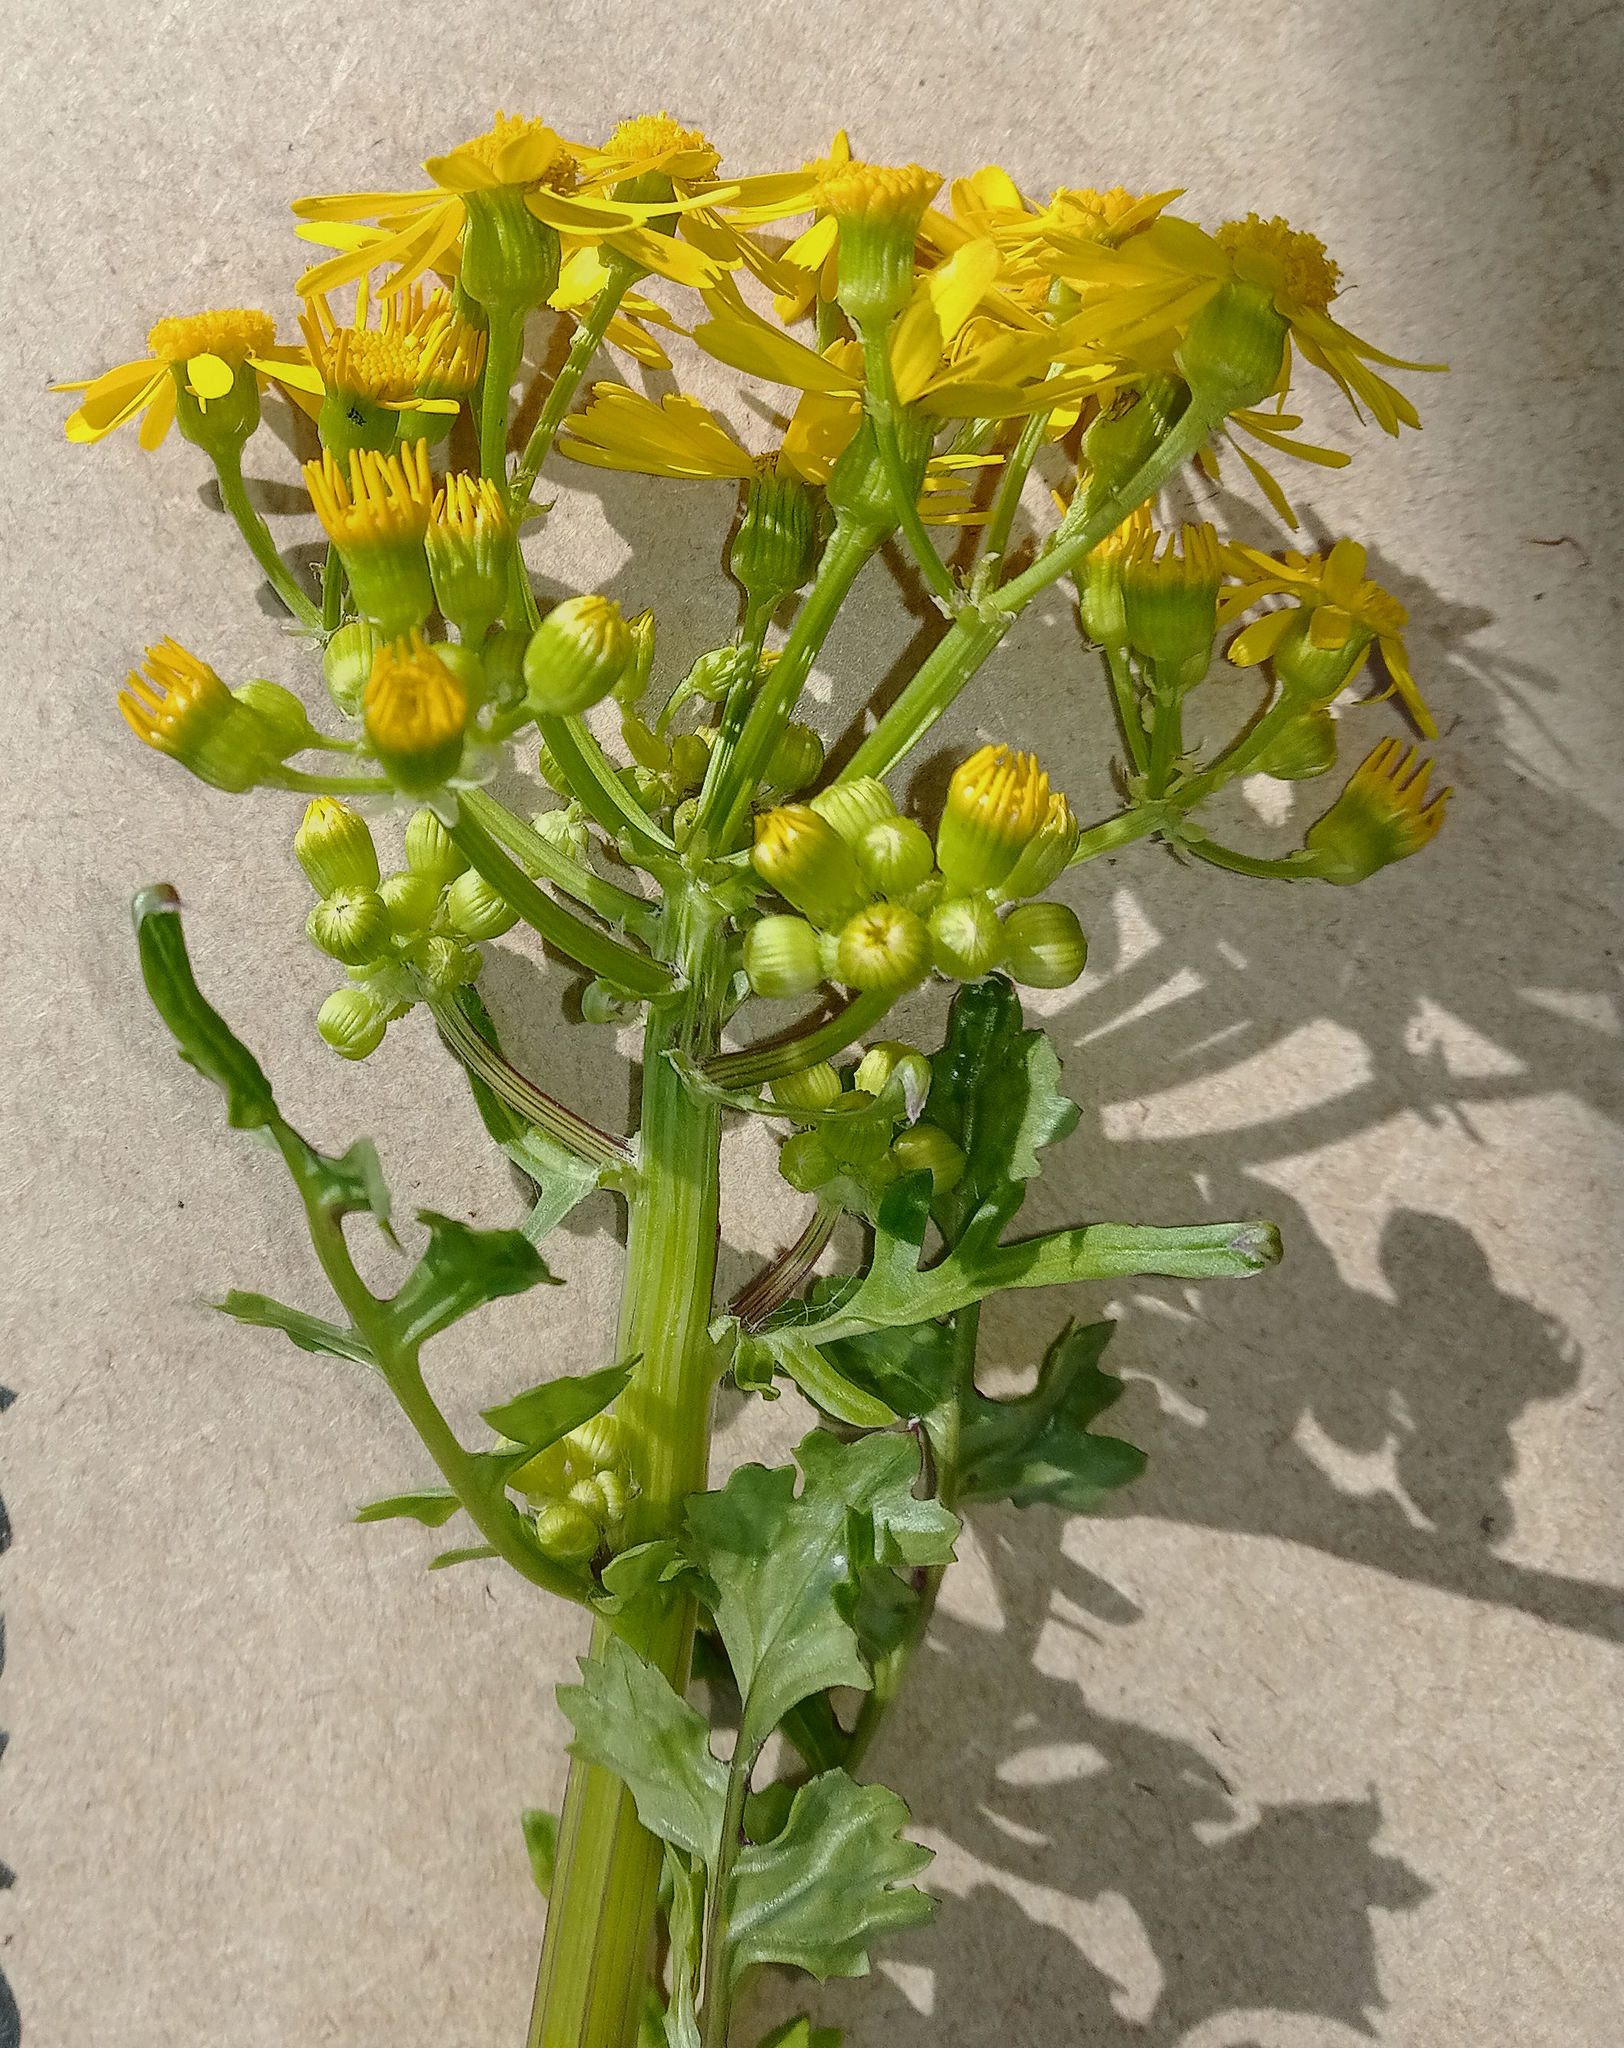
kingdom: Plantae
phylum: Tracheophyta
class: Magnoliopsida
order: Asterales
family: Asteraceae
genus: Packera
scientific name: Packera glabella
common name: Butterweed
